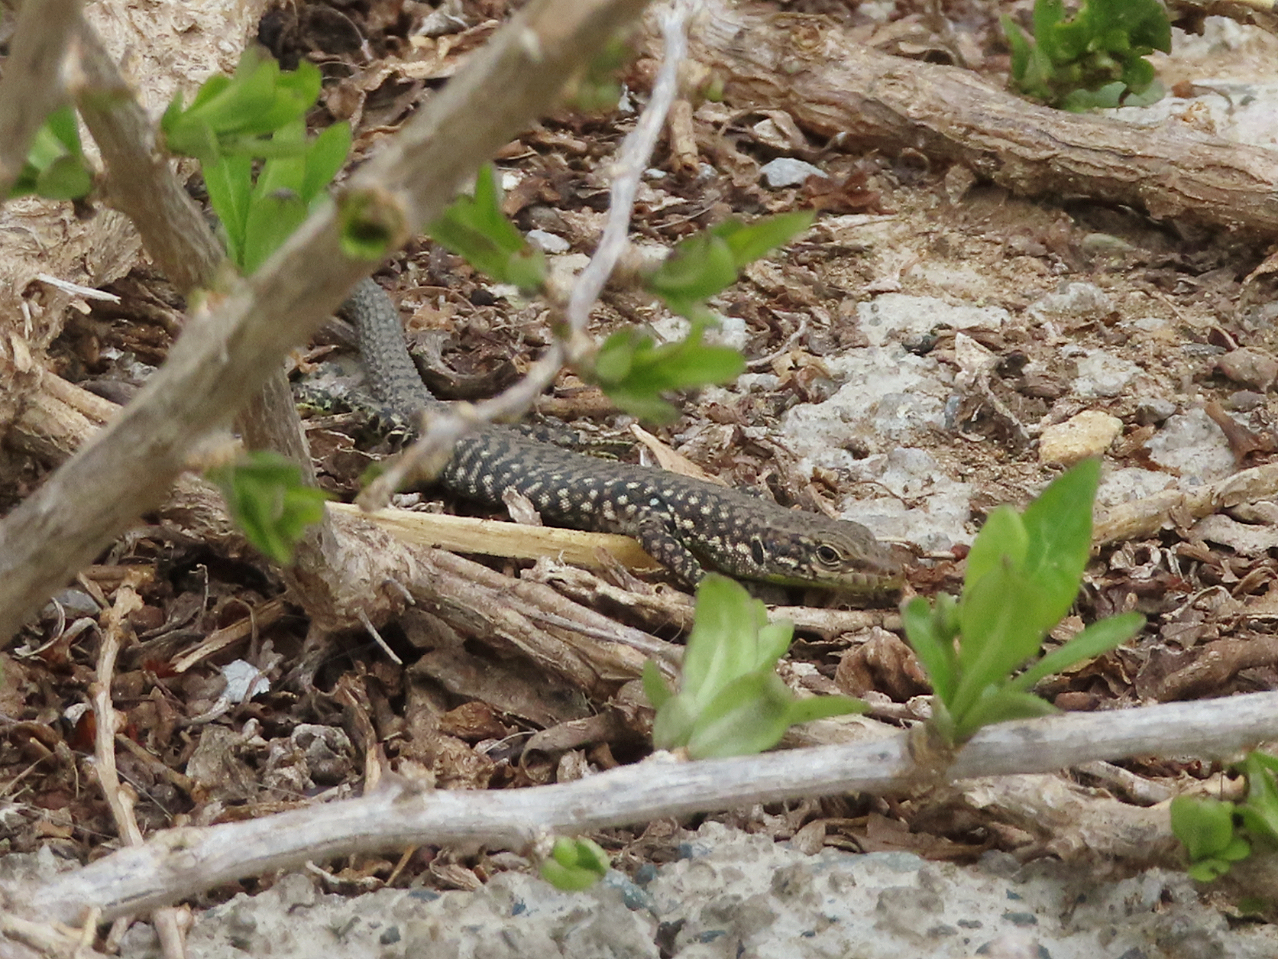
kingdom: Animalia
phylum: Chordata
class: Squamata
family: Lacertidae
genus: Darevskia
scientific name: Darevskia
